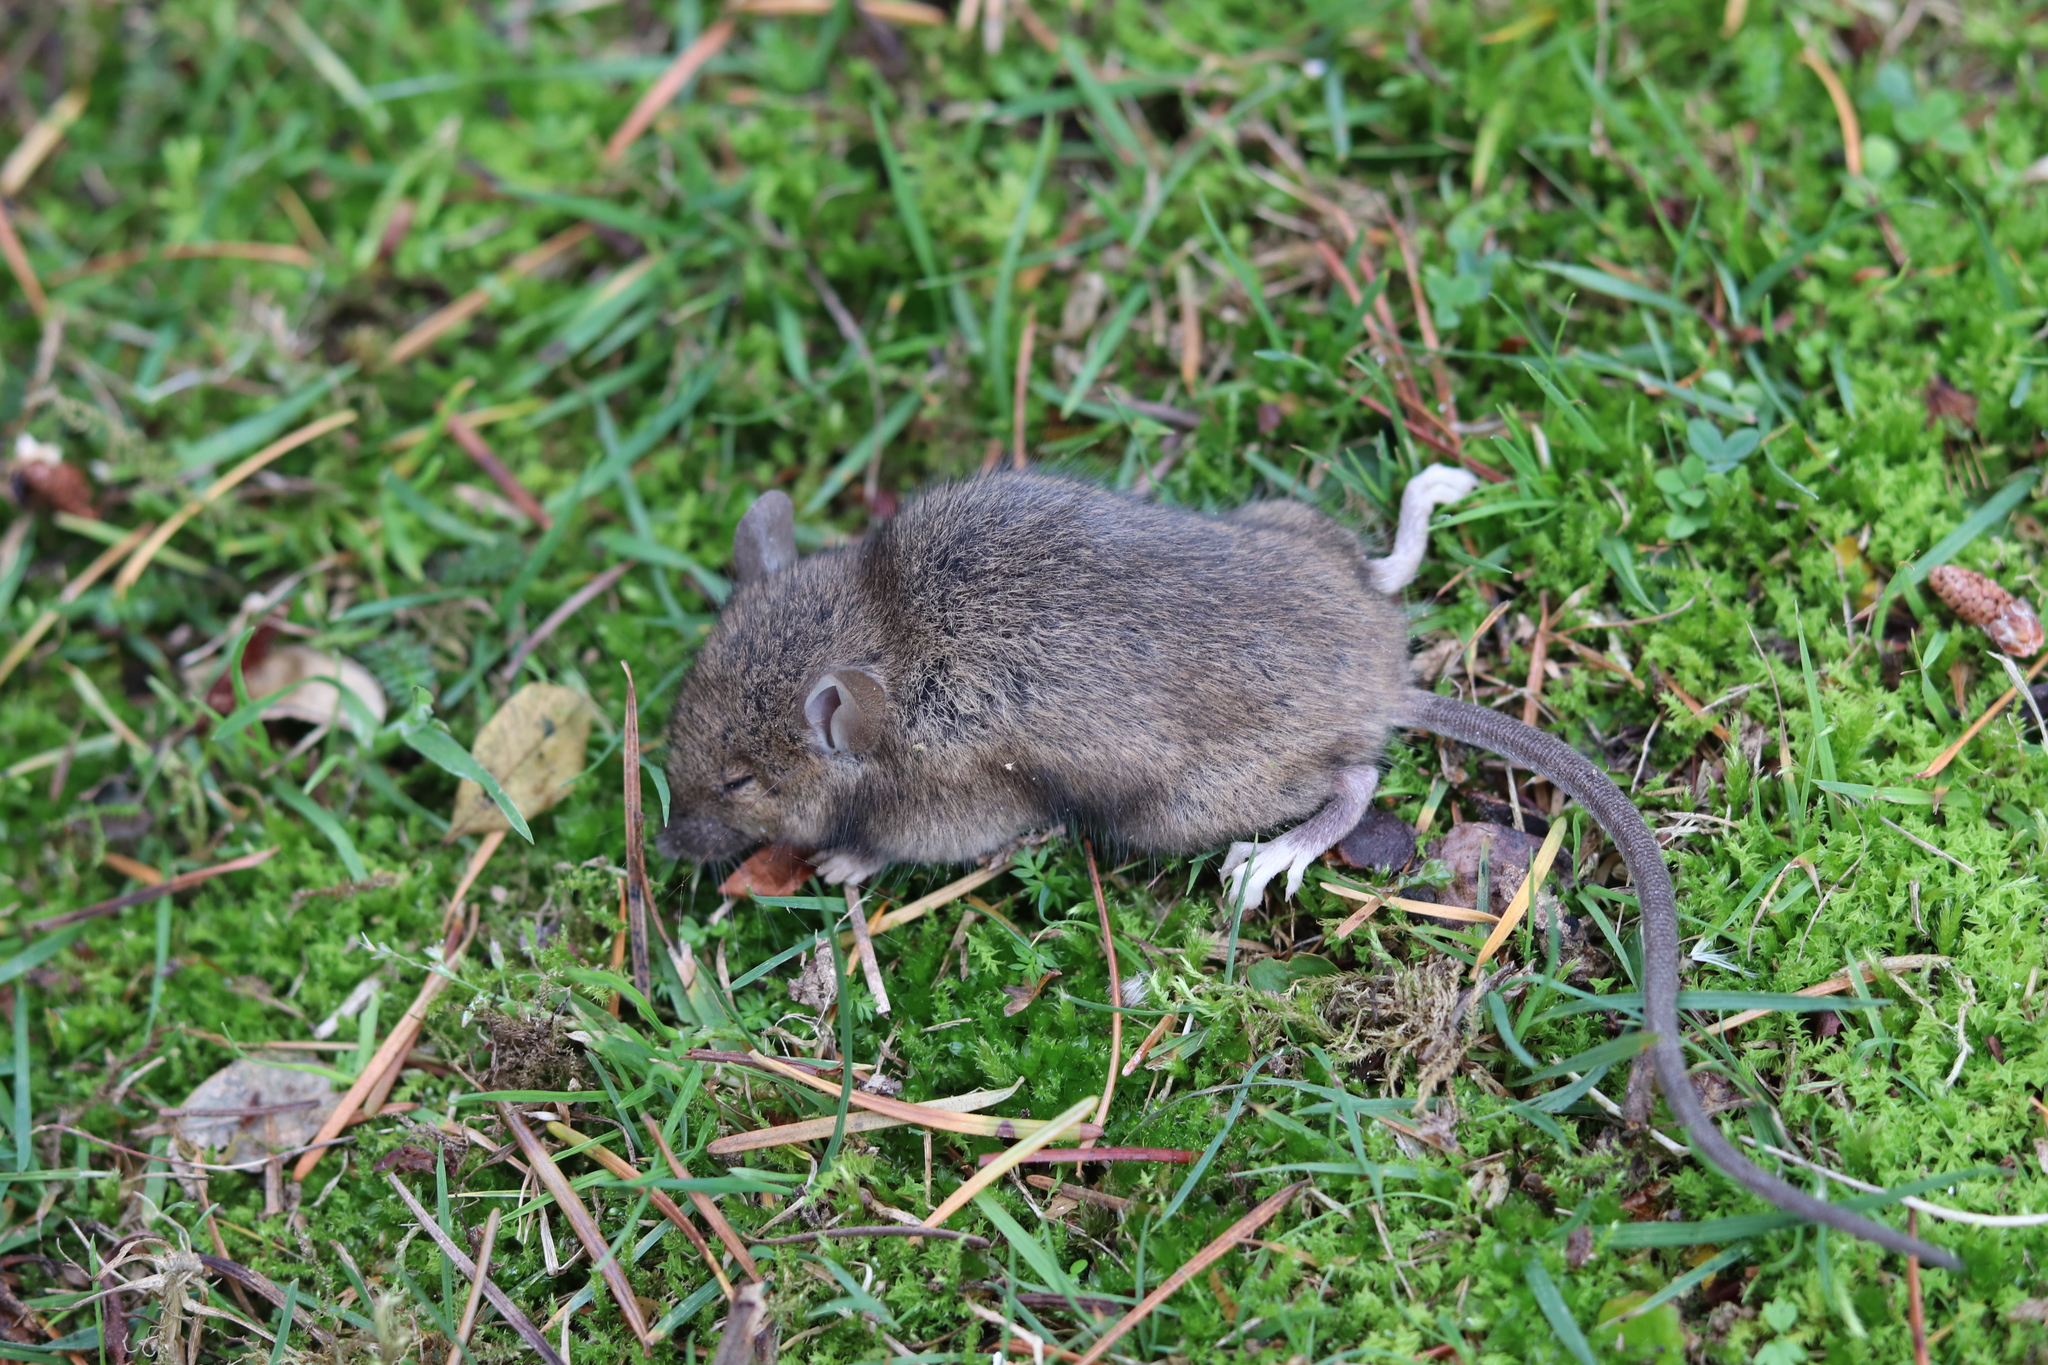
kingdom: Animalia
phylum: Chordata
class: Mammalia
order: Rodentia
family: Muridae
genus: Mus
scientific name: Mus musculus
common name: House mouse
